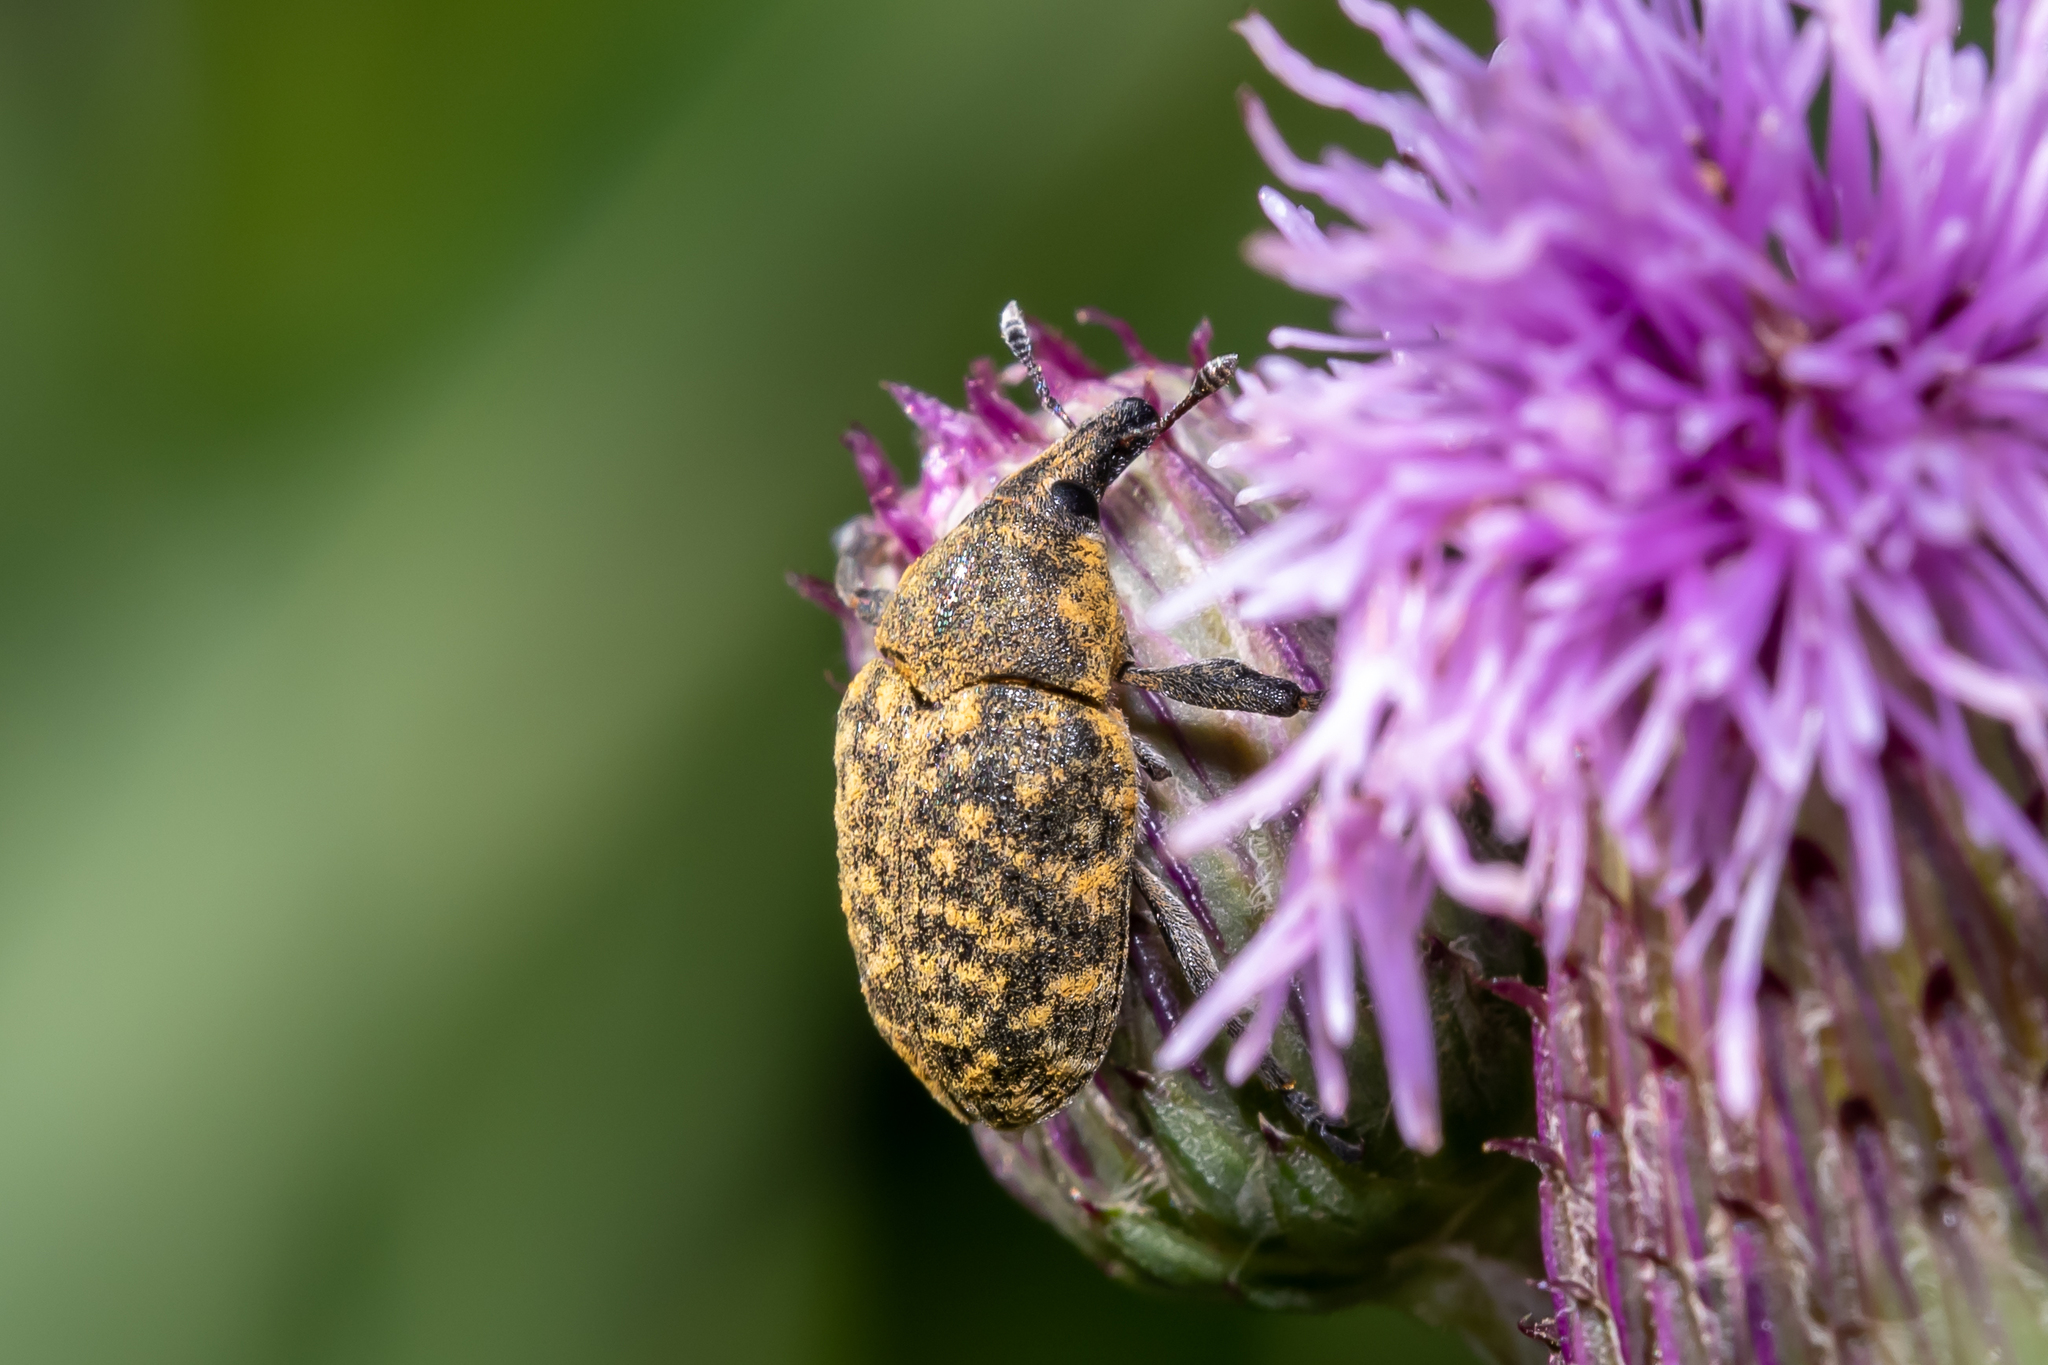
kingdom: Animalia
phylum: Arthropoda
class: Insecta
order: Coleoptera
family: Curculionidae
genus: Larinus
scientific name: Larinus turbinatus
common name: Weevil
